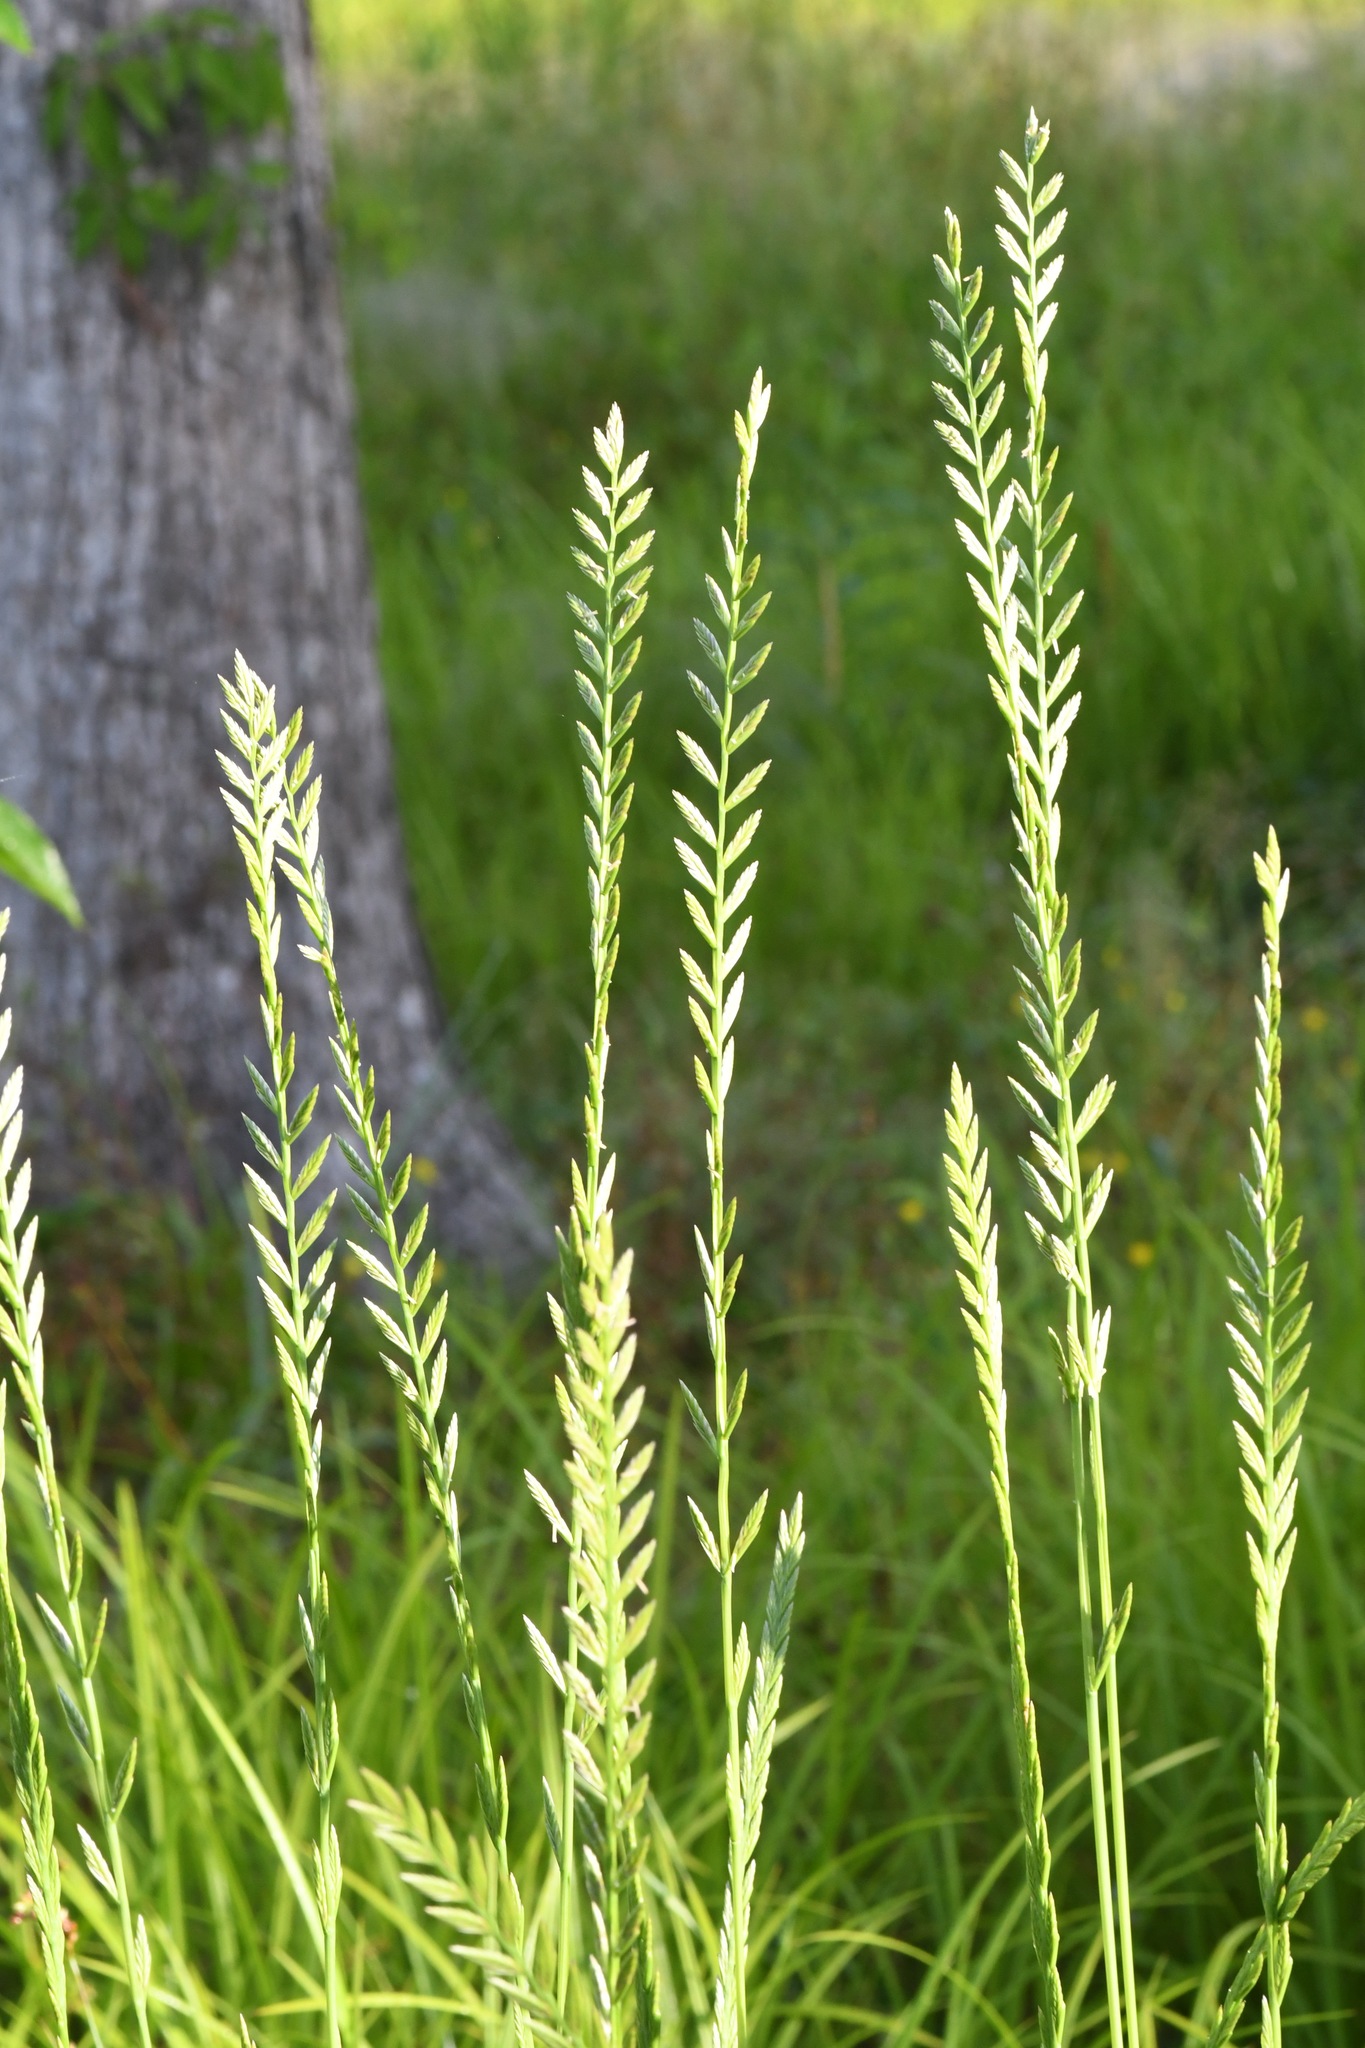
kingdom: Plantae
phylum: Tracheophyta
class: Liliopsida
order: Poales
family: Poaceae
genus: Lolium
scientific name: Lolium perenne
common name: Perennial ryegrass
